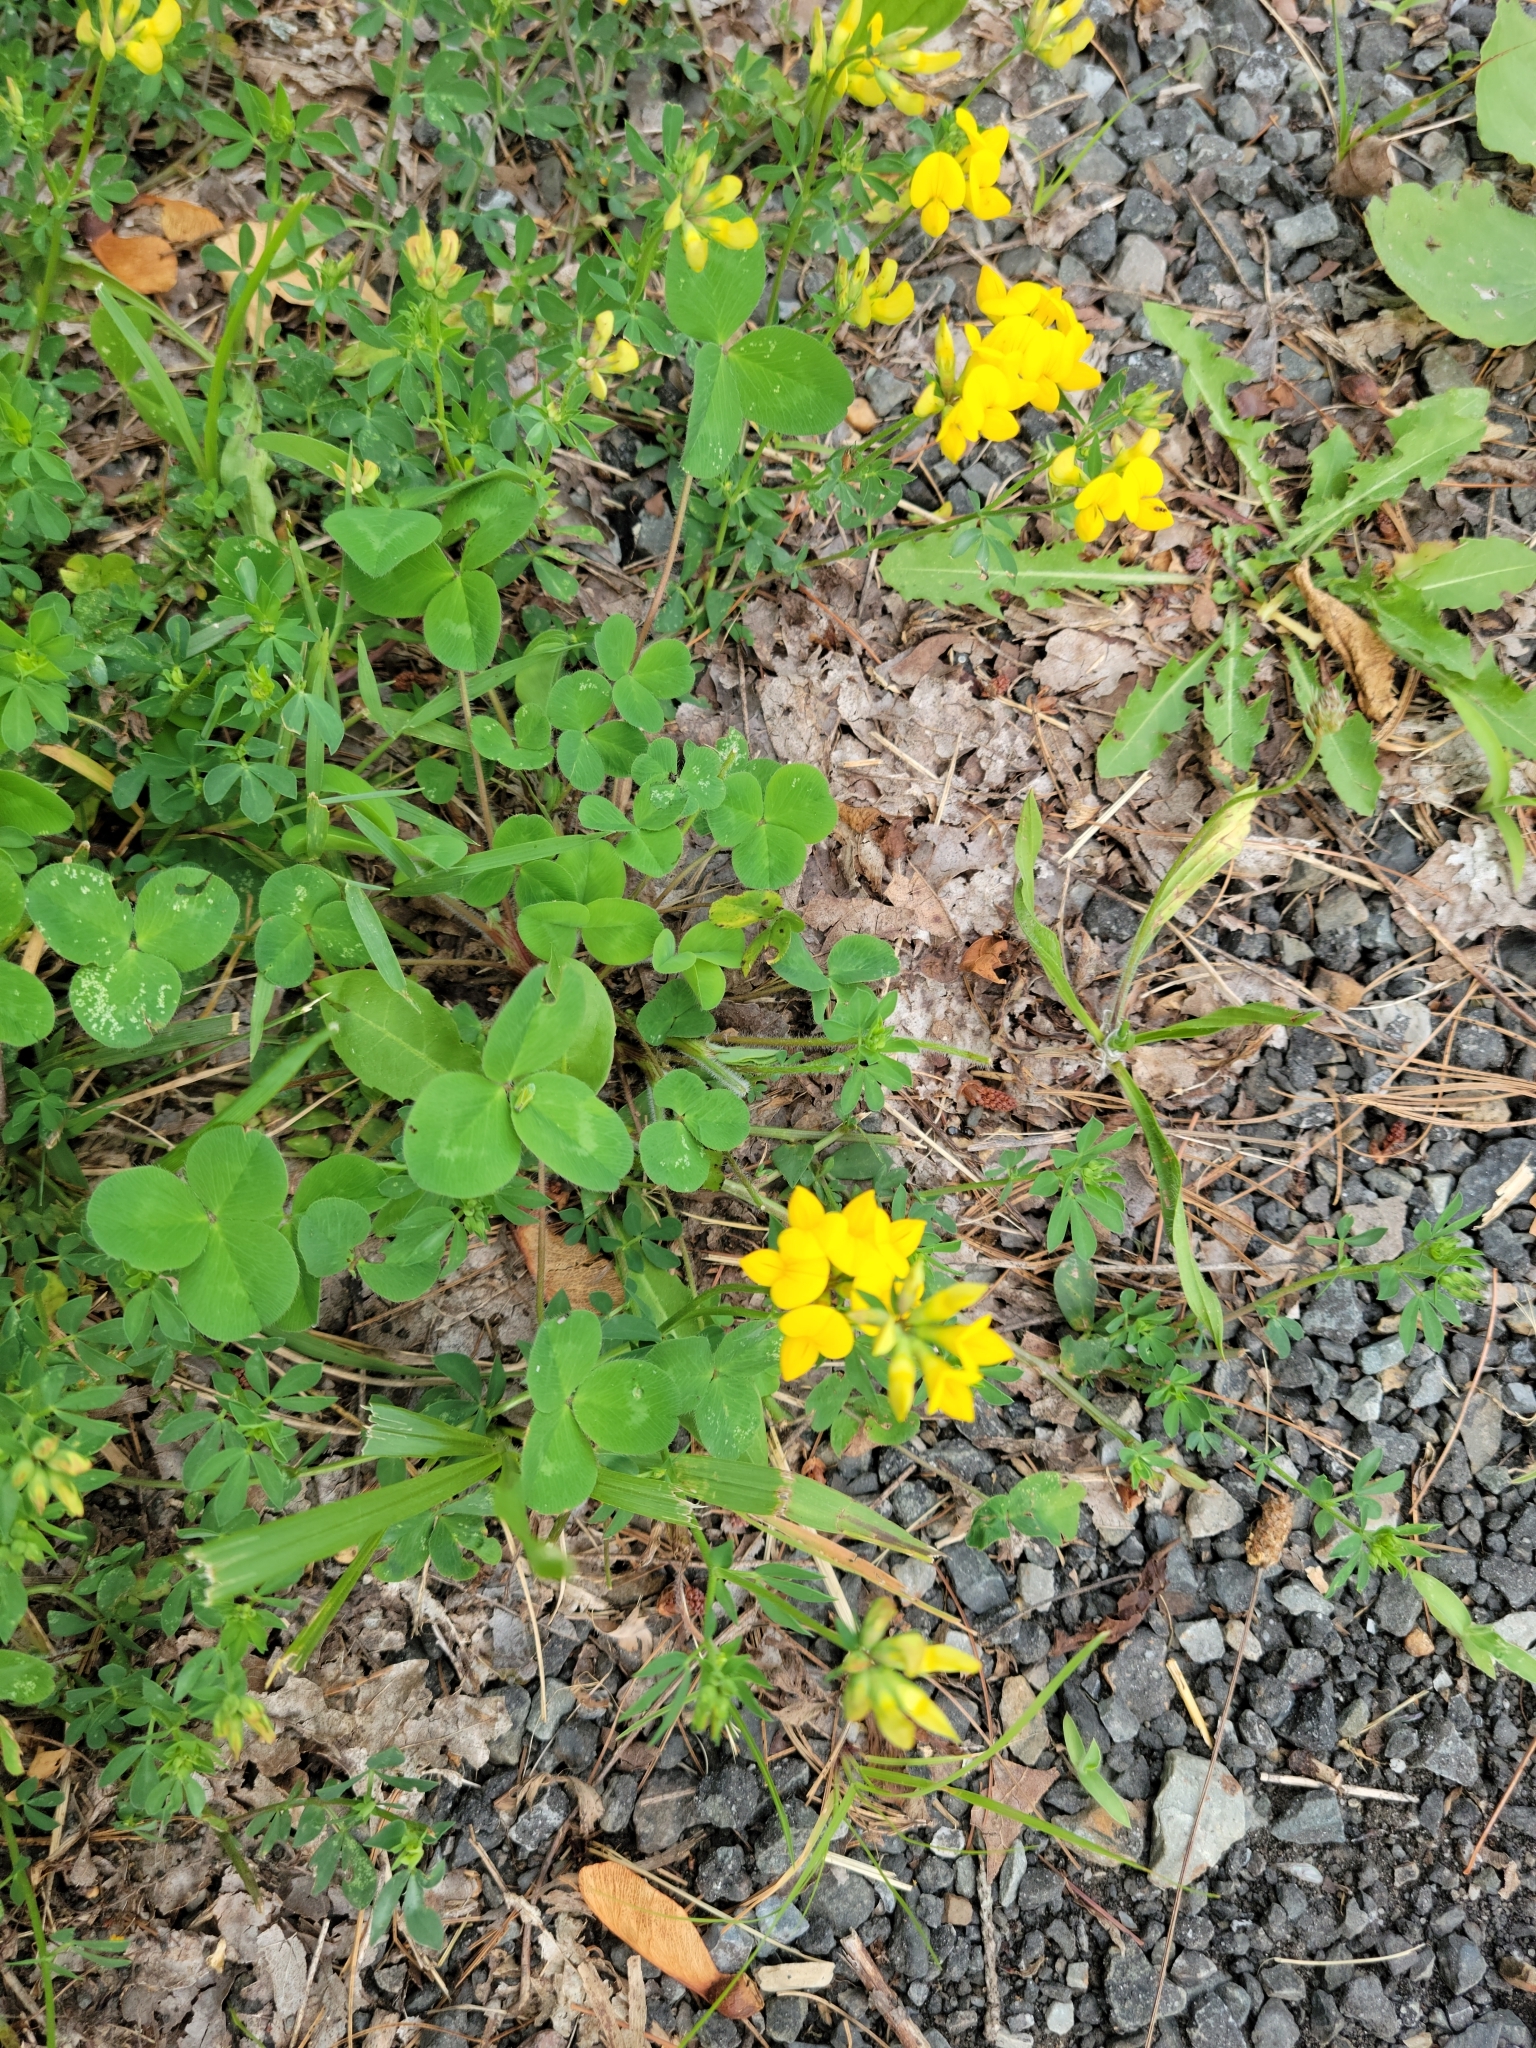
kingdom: Plantae
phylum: Tracheophyta
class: Magnoliopsida
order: Fabales
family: Fabaceae
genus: Lotus
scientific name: Lotus corniculatus
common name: Common bird's-foot-trefoil
